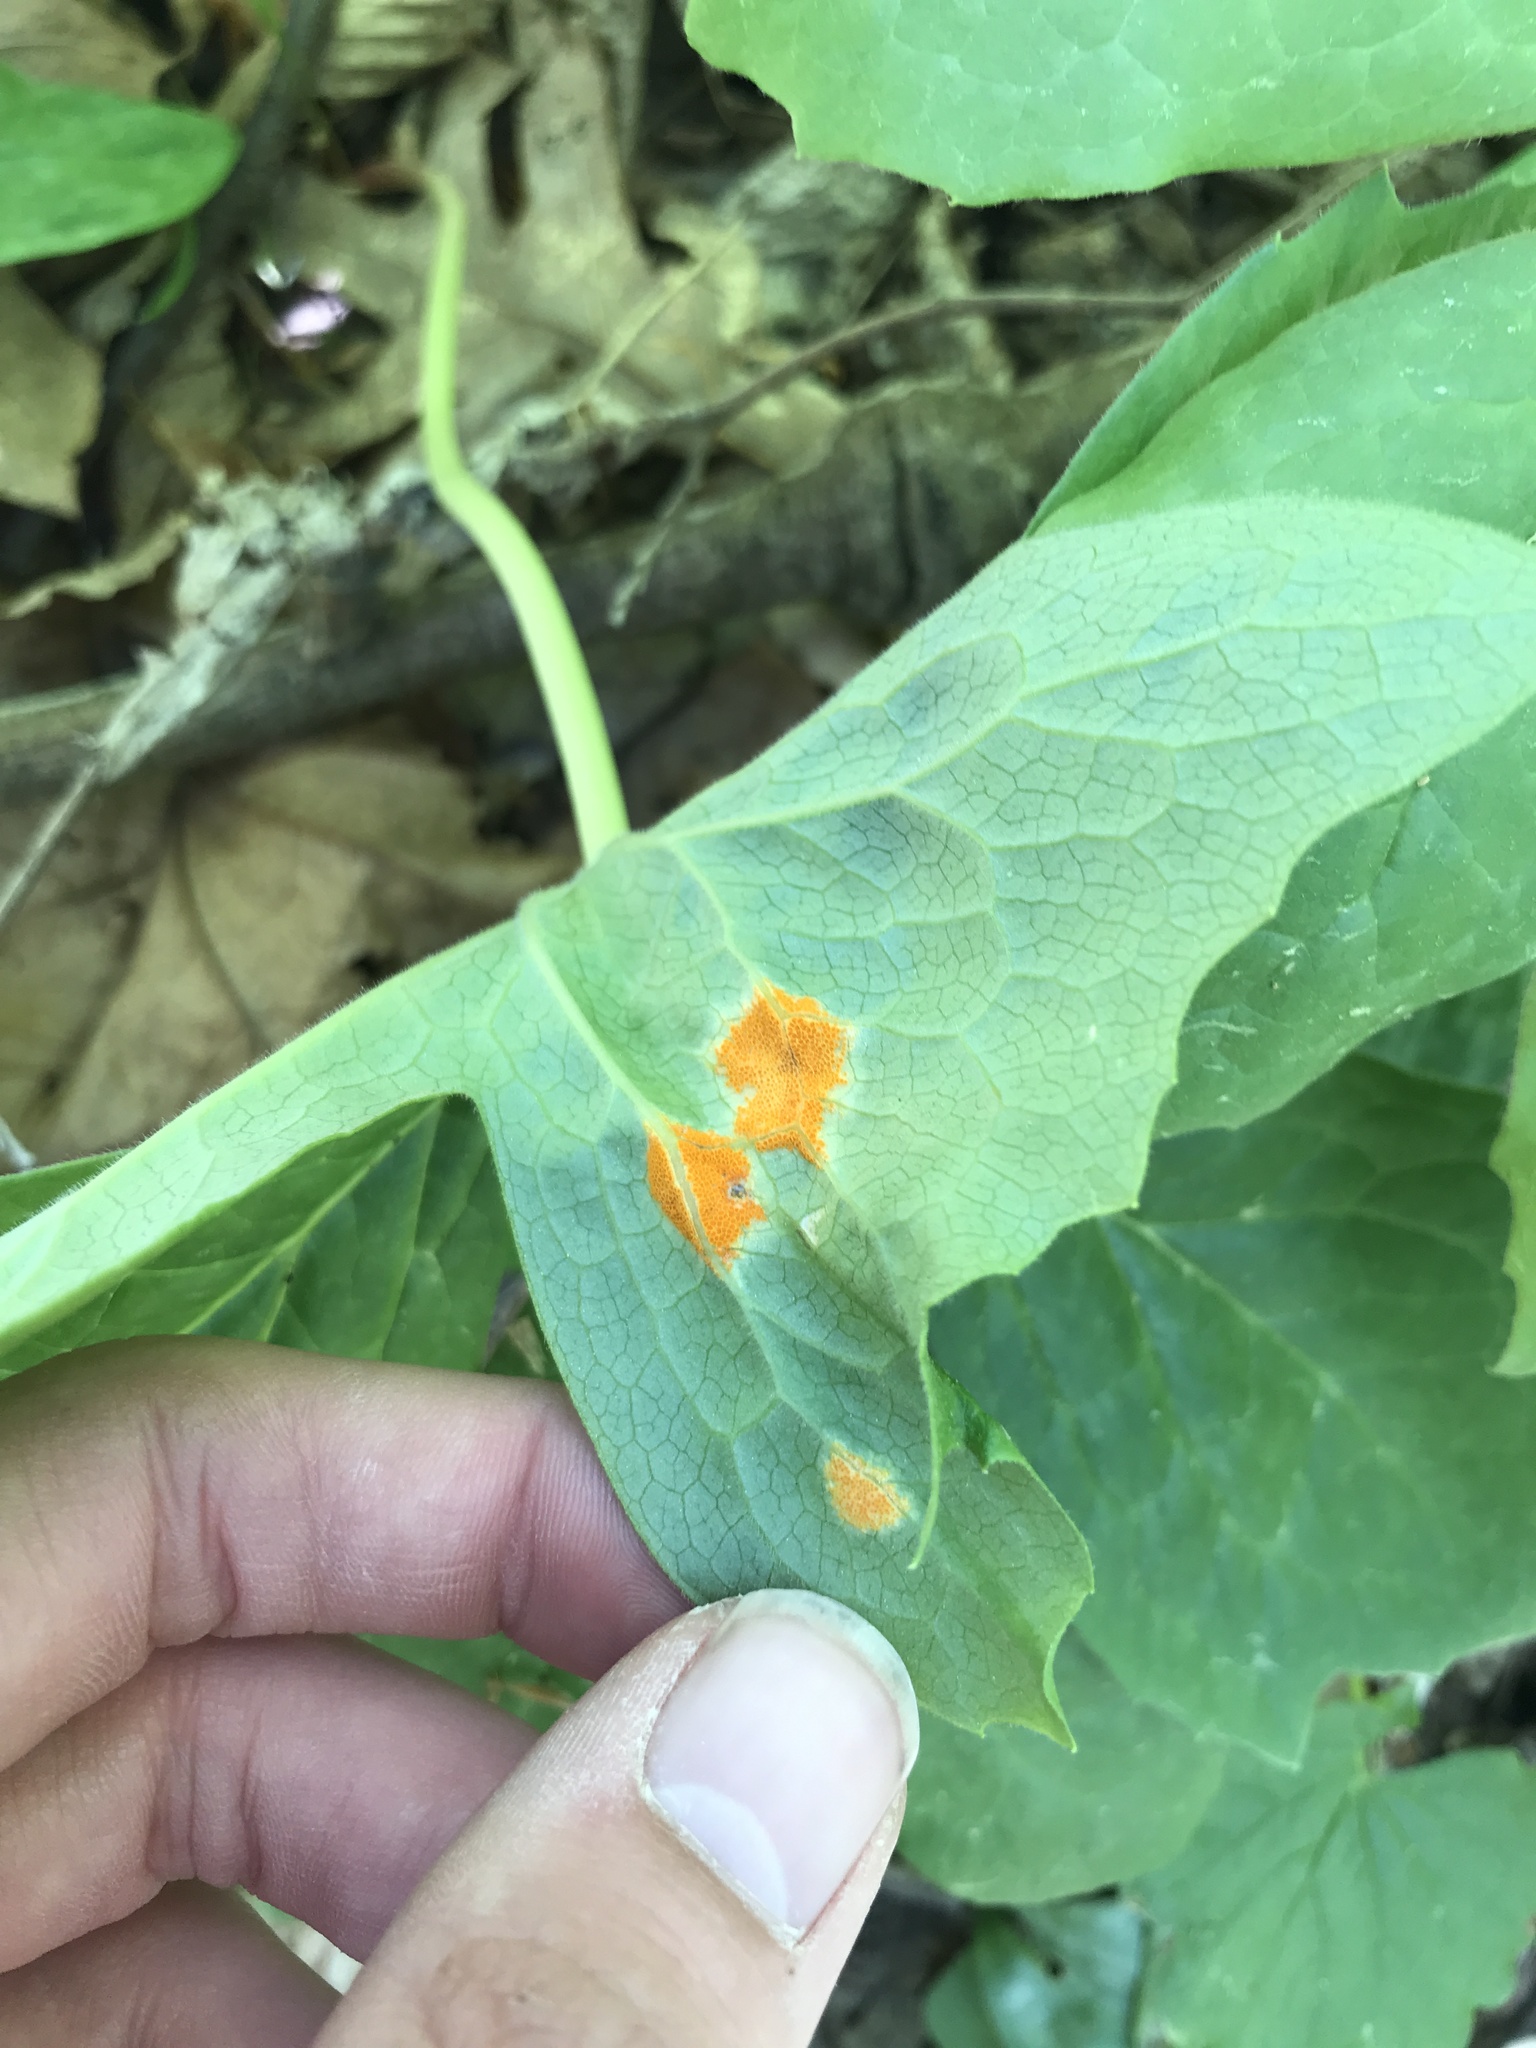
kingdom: Fungi
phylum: Basidiomycota
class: Pucciniomycetes
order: Pucciniales
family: Pucciniaceae
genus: Puccinia
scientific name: Puccinia podophylli
